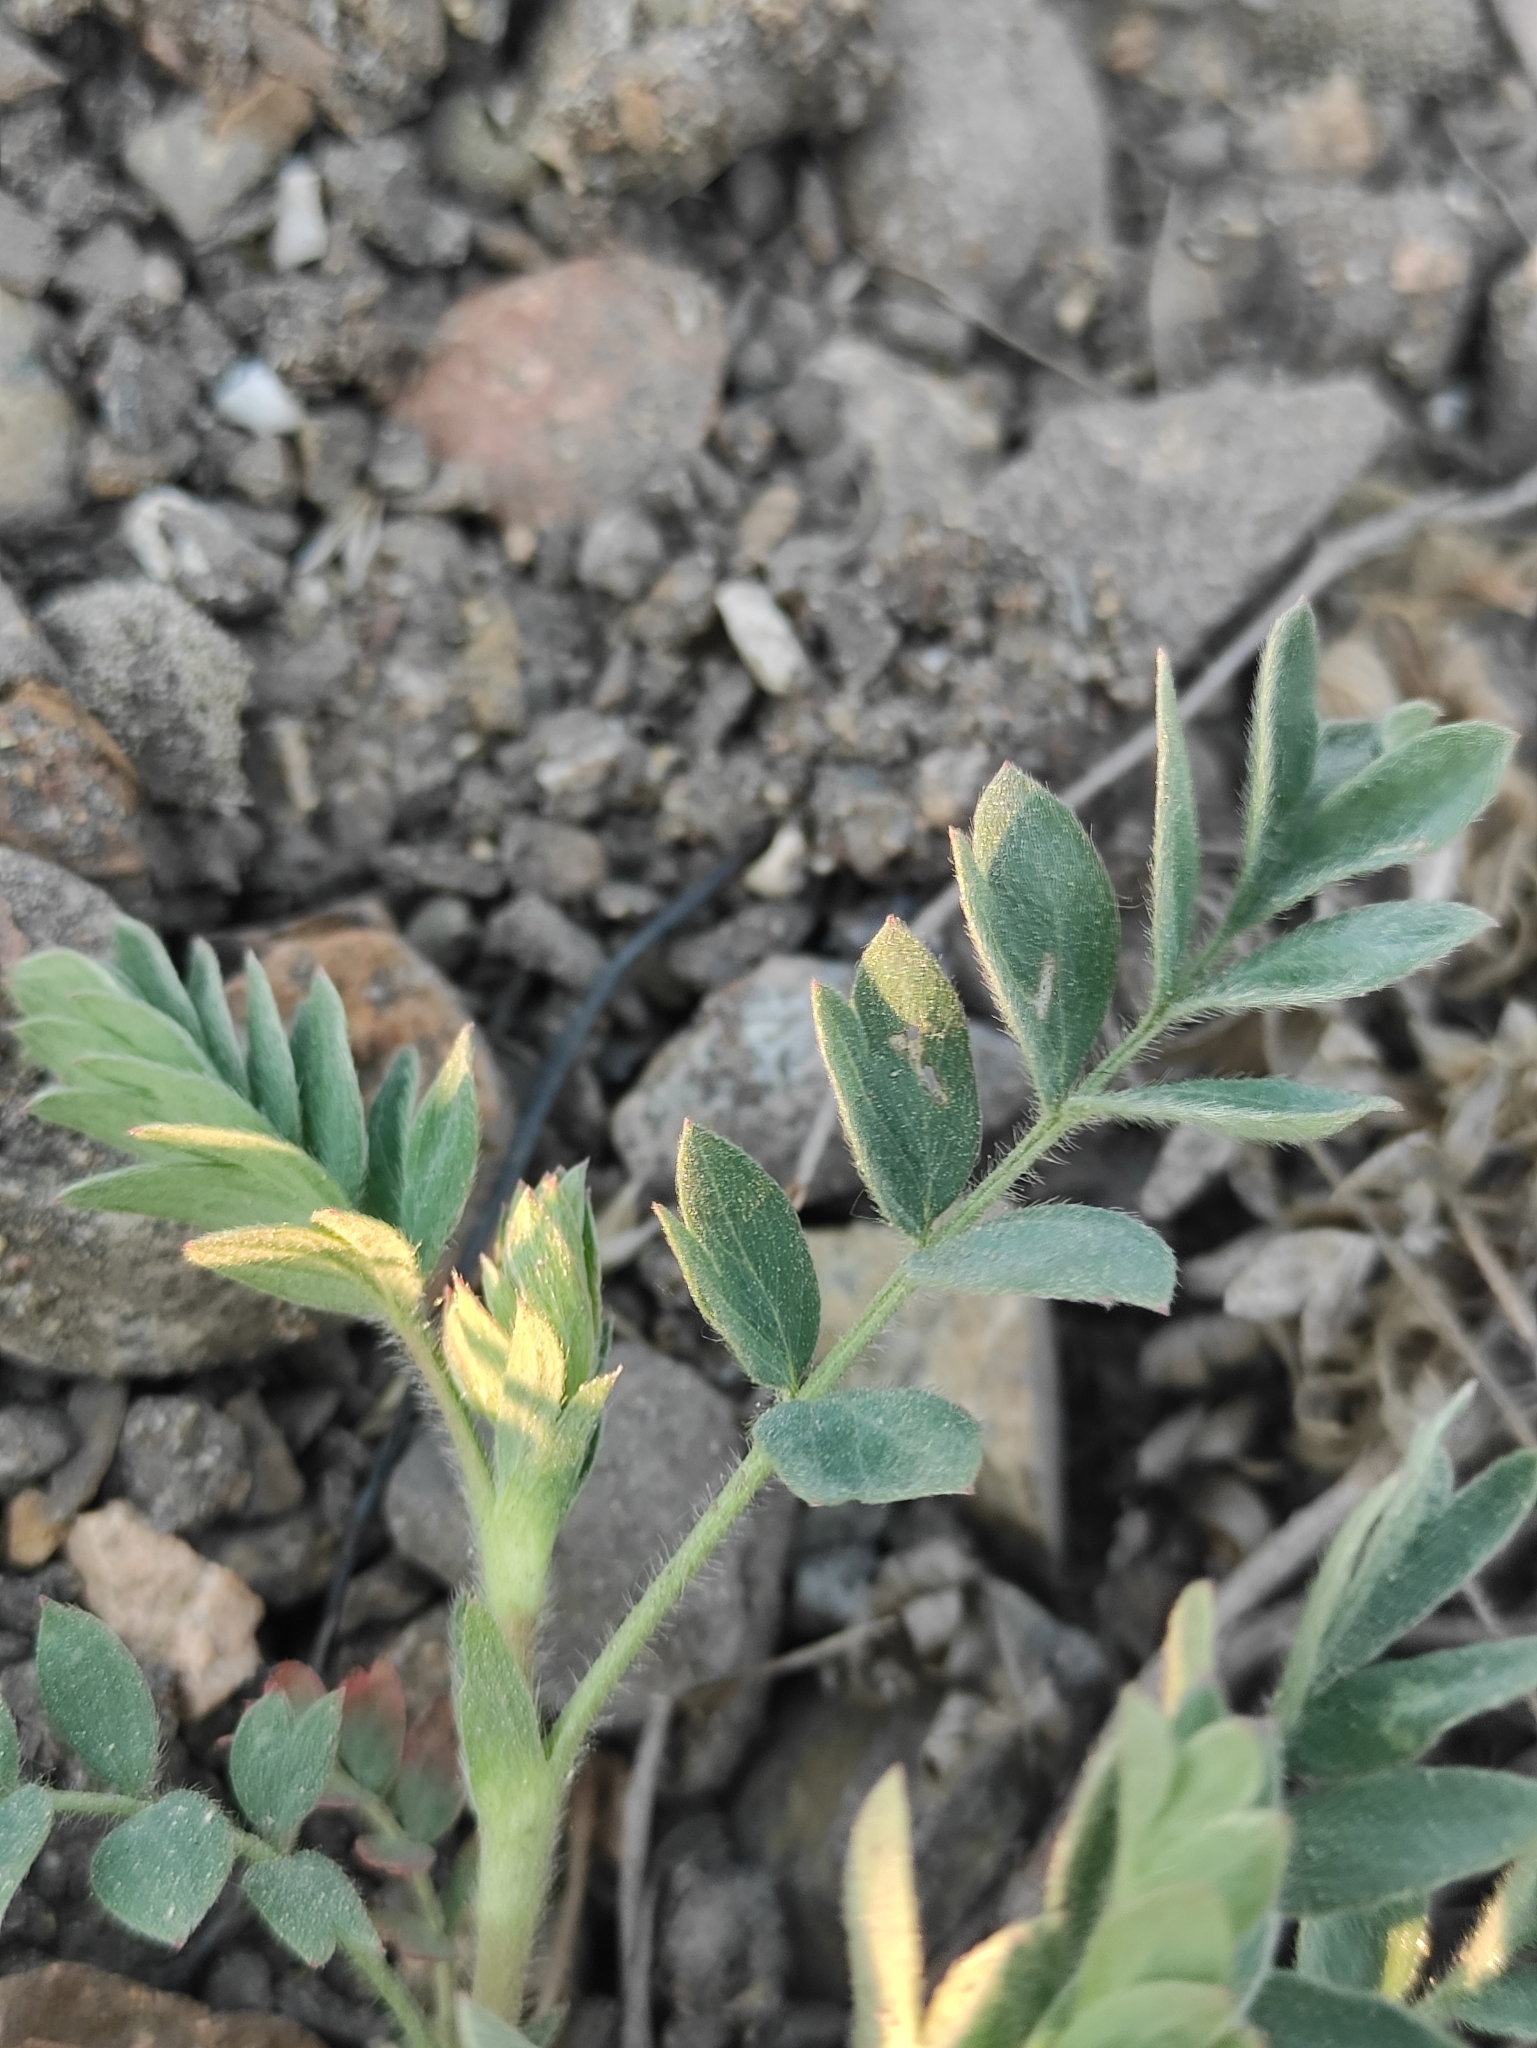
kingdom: Plantae
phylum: Tracheophyta
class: Magnoliopsida
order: Rosales
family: Rosaceae
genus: Sibbaldianthe
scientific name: Sibbaldianthe bifurca
